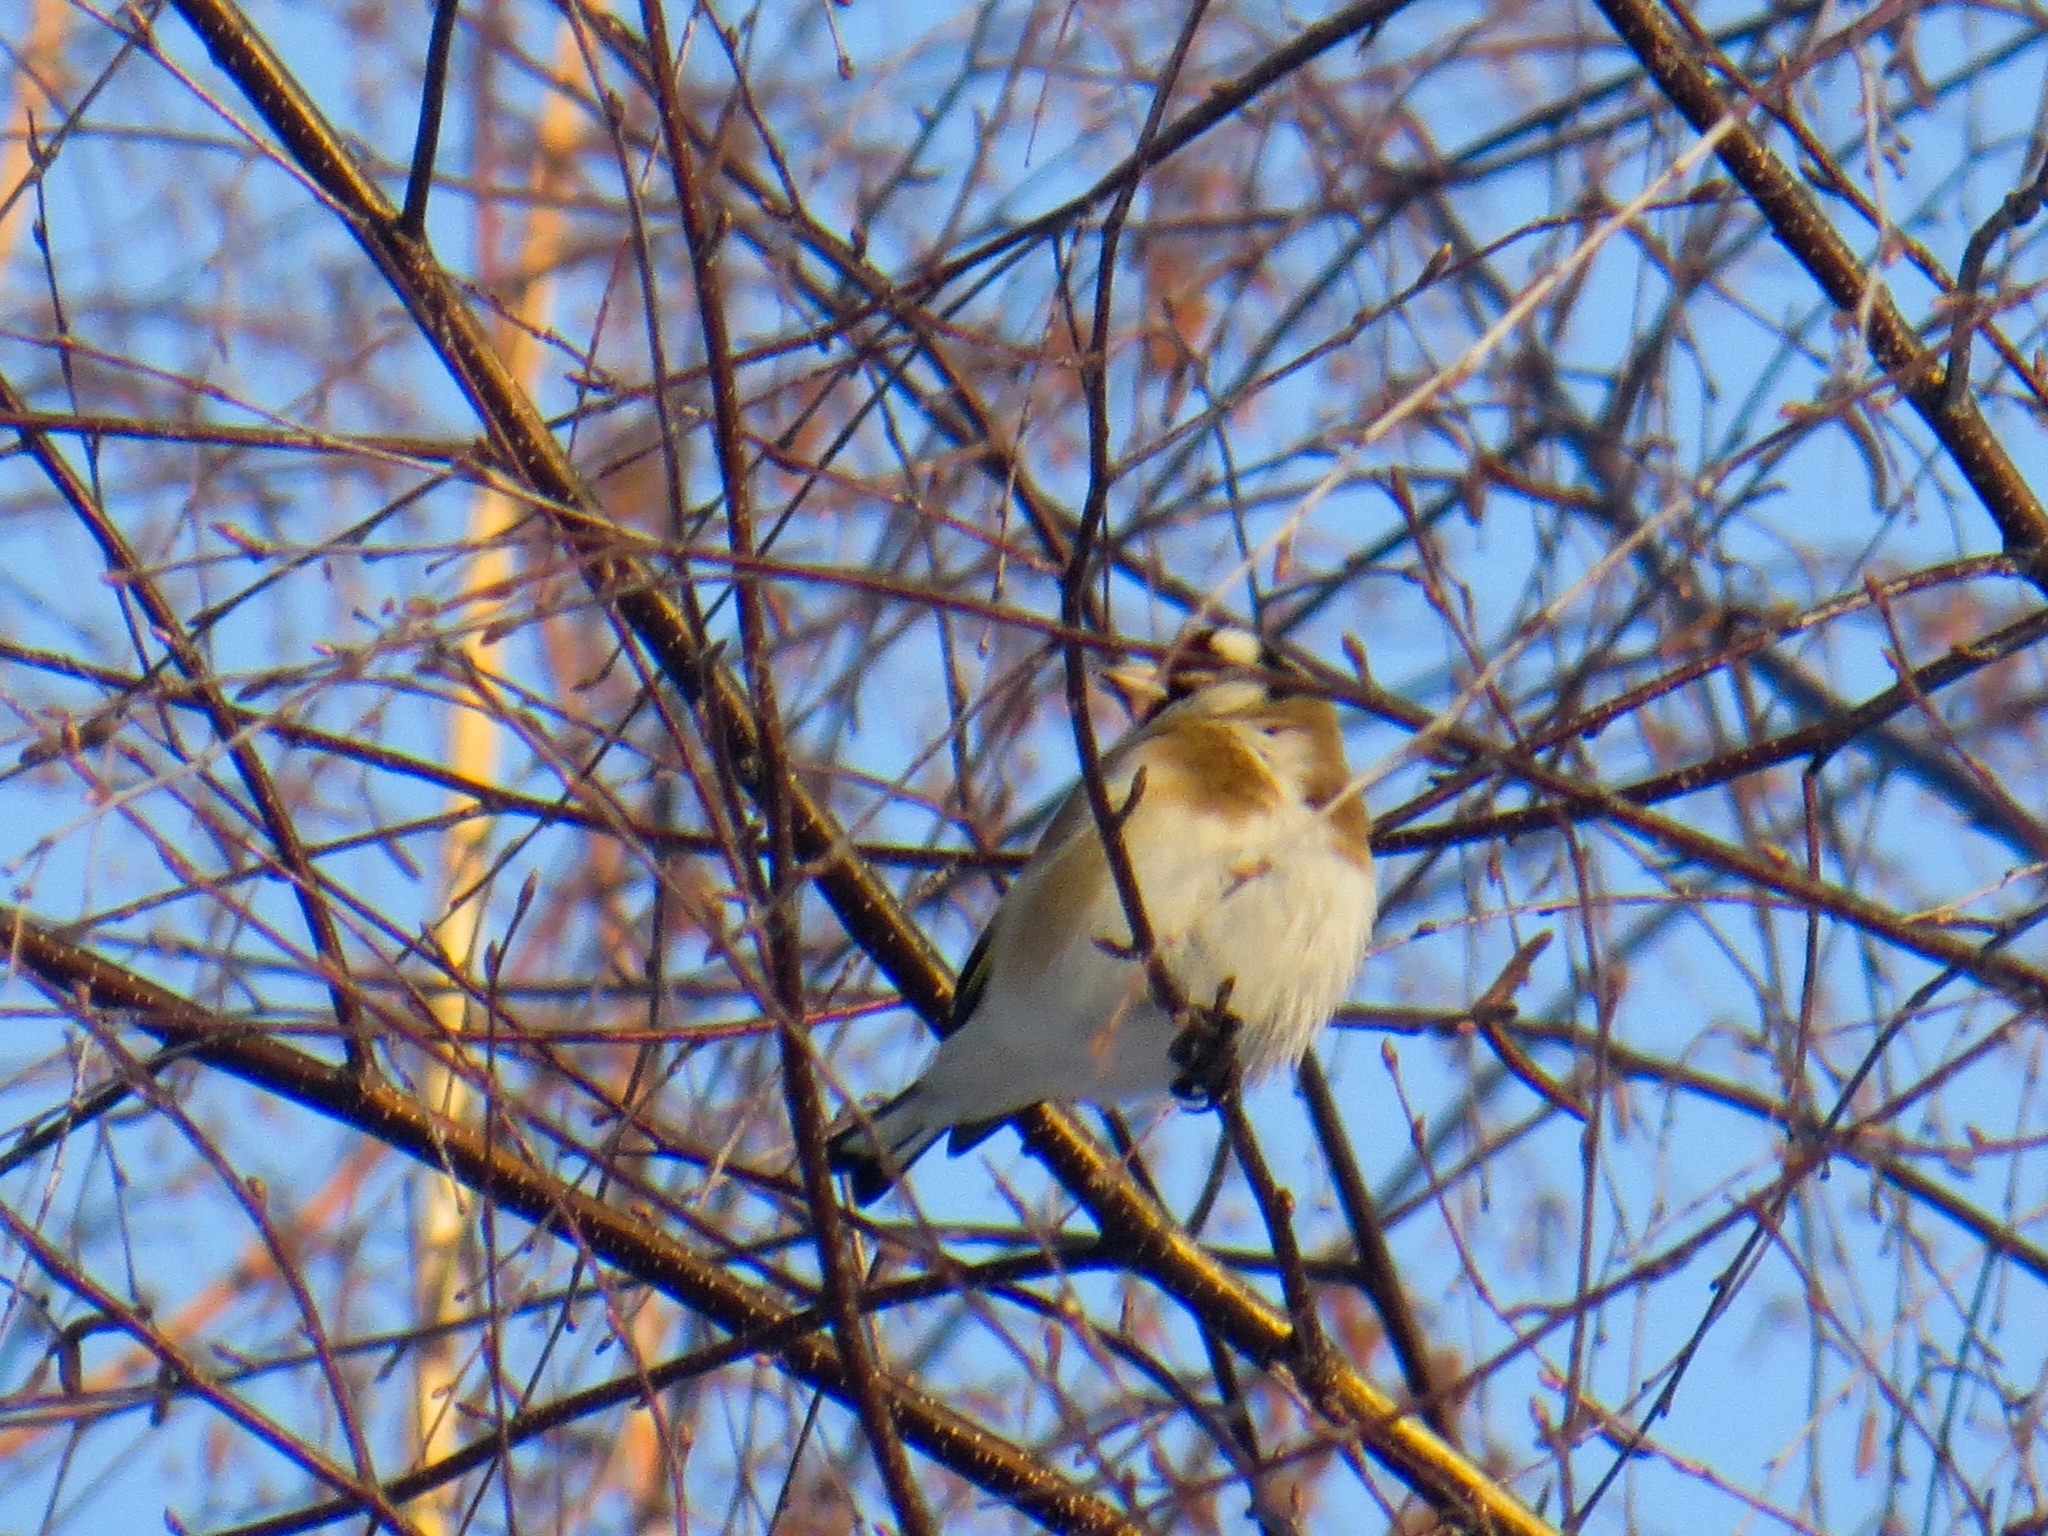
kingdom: Animalia
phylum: Chordata
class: Aves
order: Passeriformes
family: Fringillidae
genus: Carduelis
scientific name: Carduelis carduelis
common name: European goldfinch
